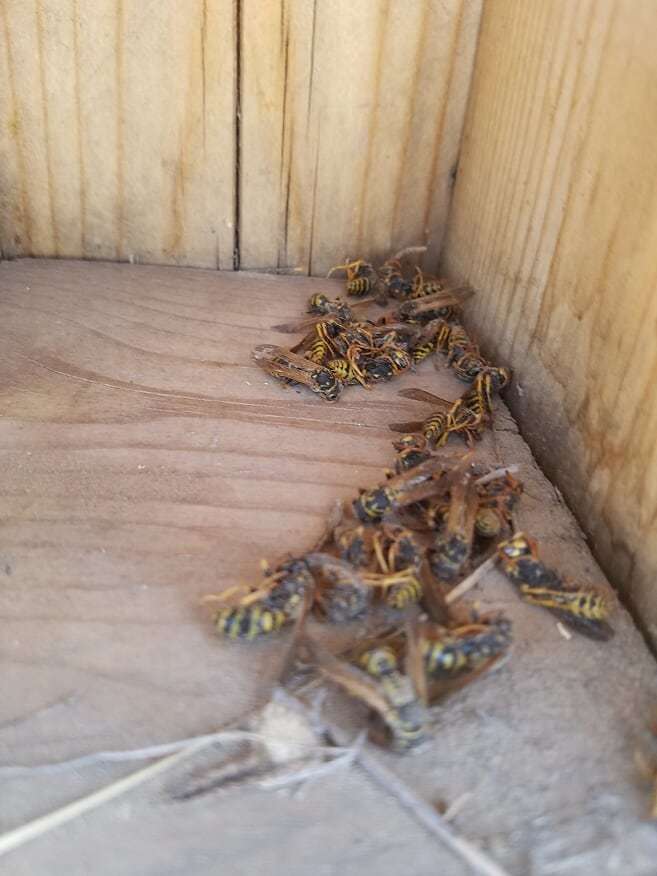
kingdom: Animalia
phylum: Arthropoda
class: Insecta
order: Hymenoptera
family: Eumenidae
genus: Polistes
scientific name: Polistes dominula
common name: Paper wasp
